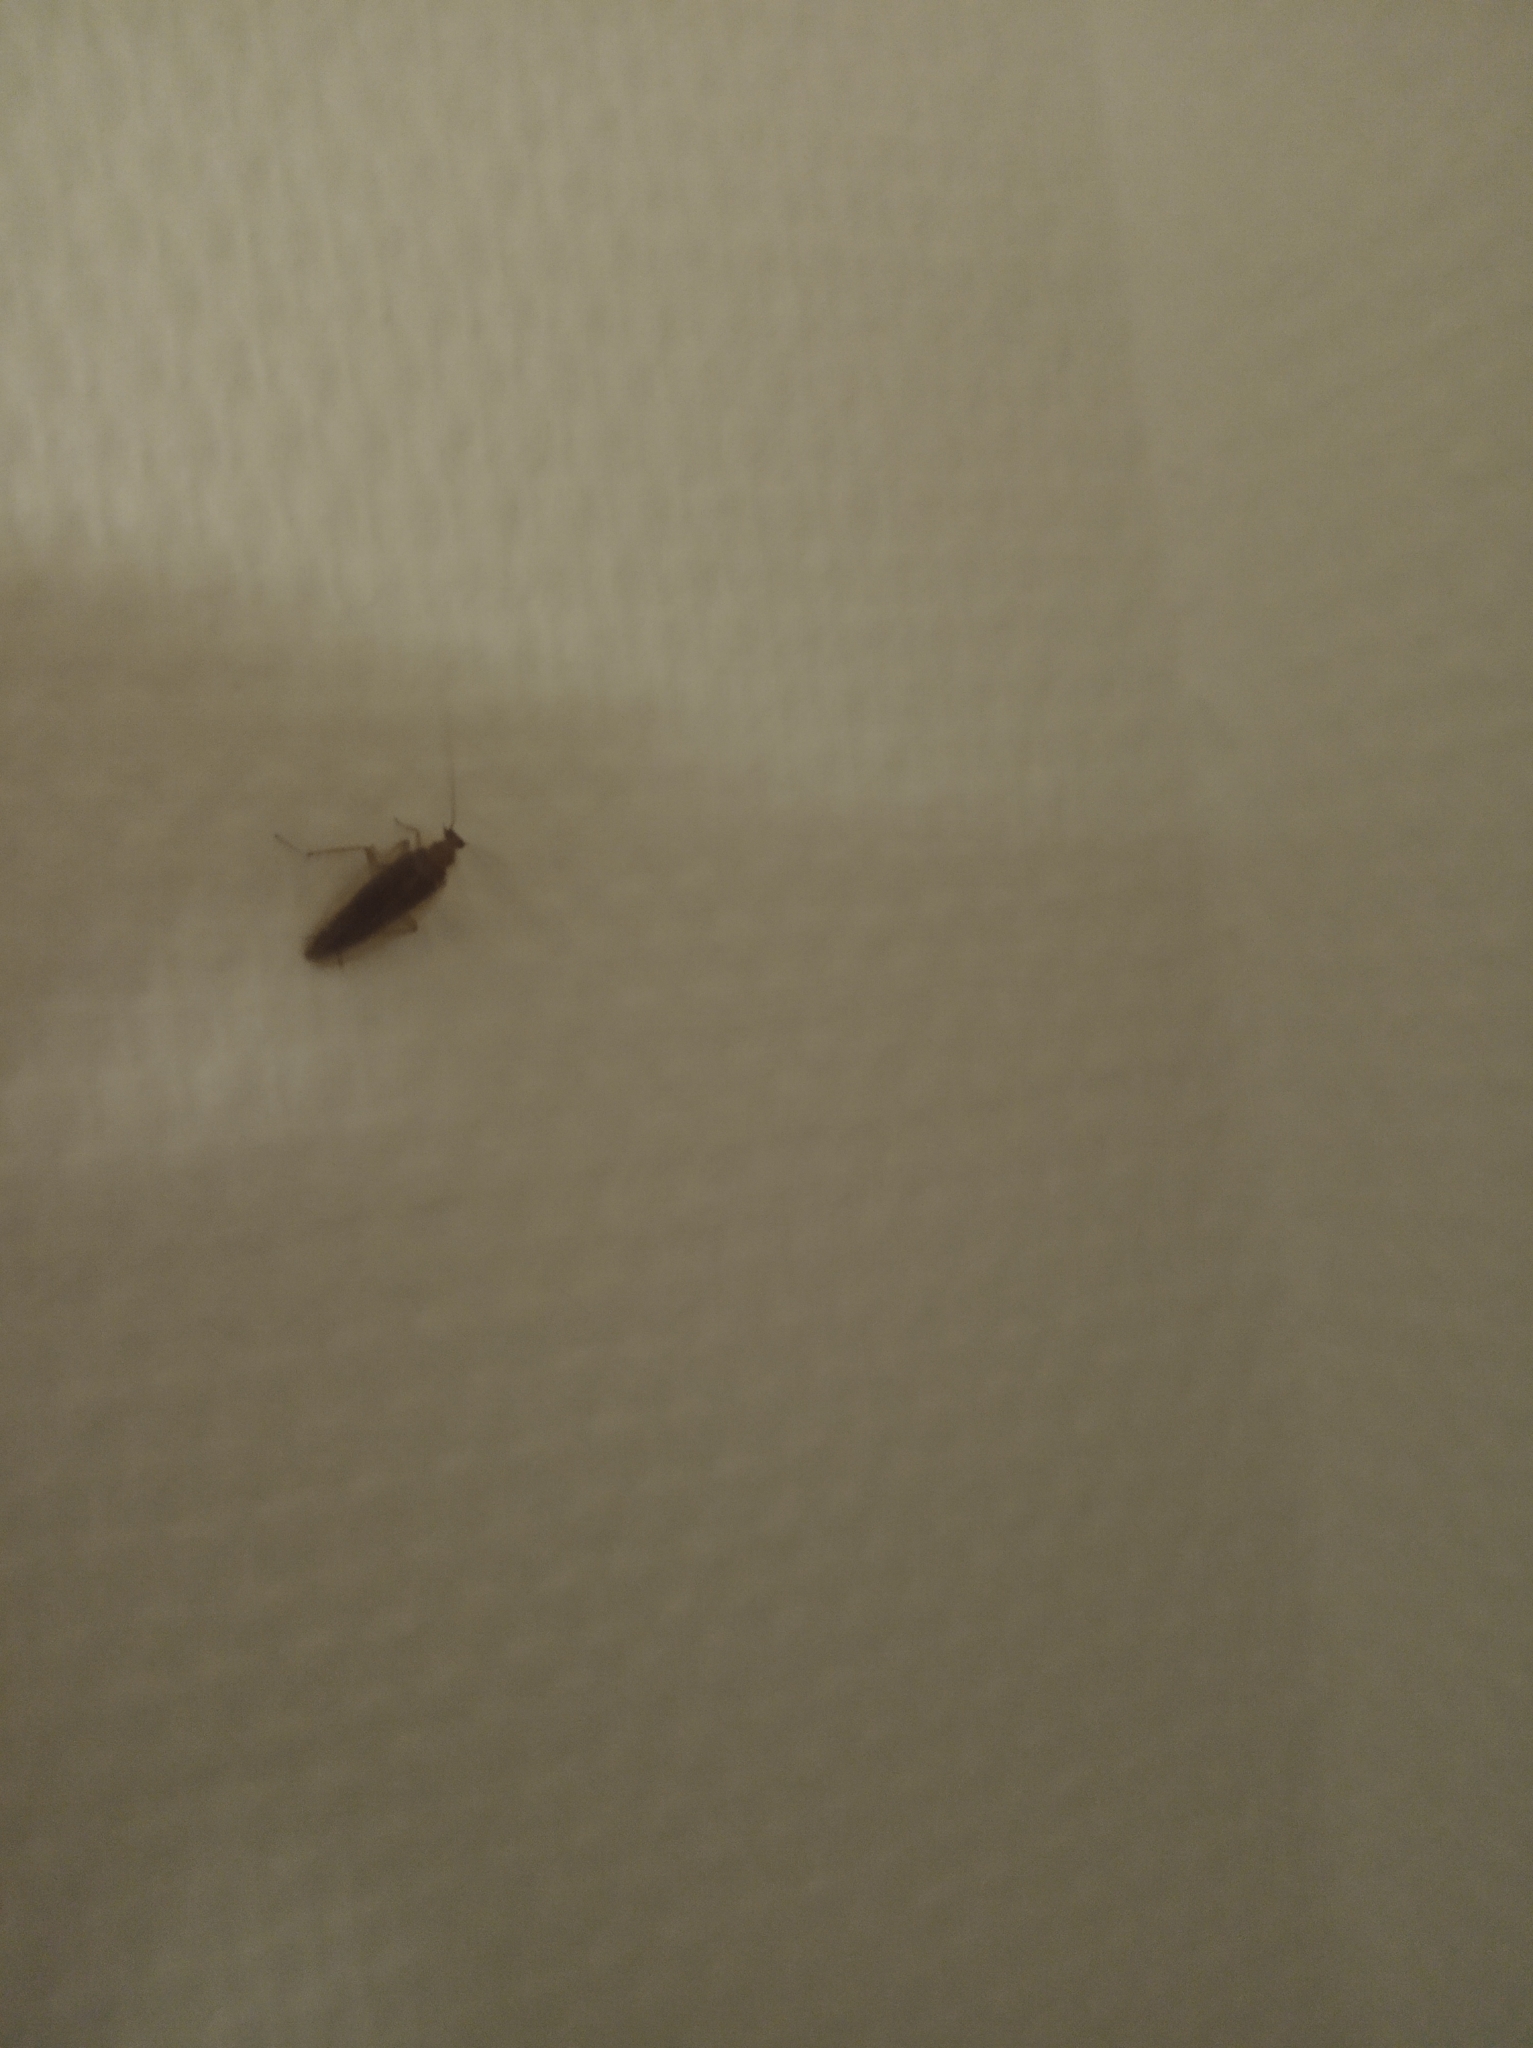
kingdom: Animalia
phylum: Arthropoda
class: Insecta
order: Blattodea
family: Ectobiidae
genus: Ectobius
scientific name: Ectobius vittiventris
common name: Garden cockroach
